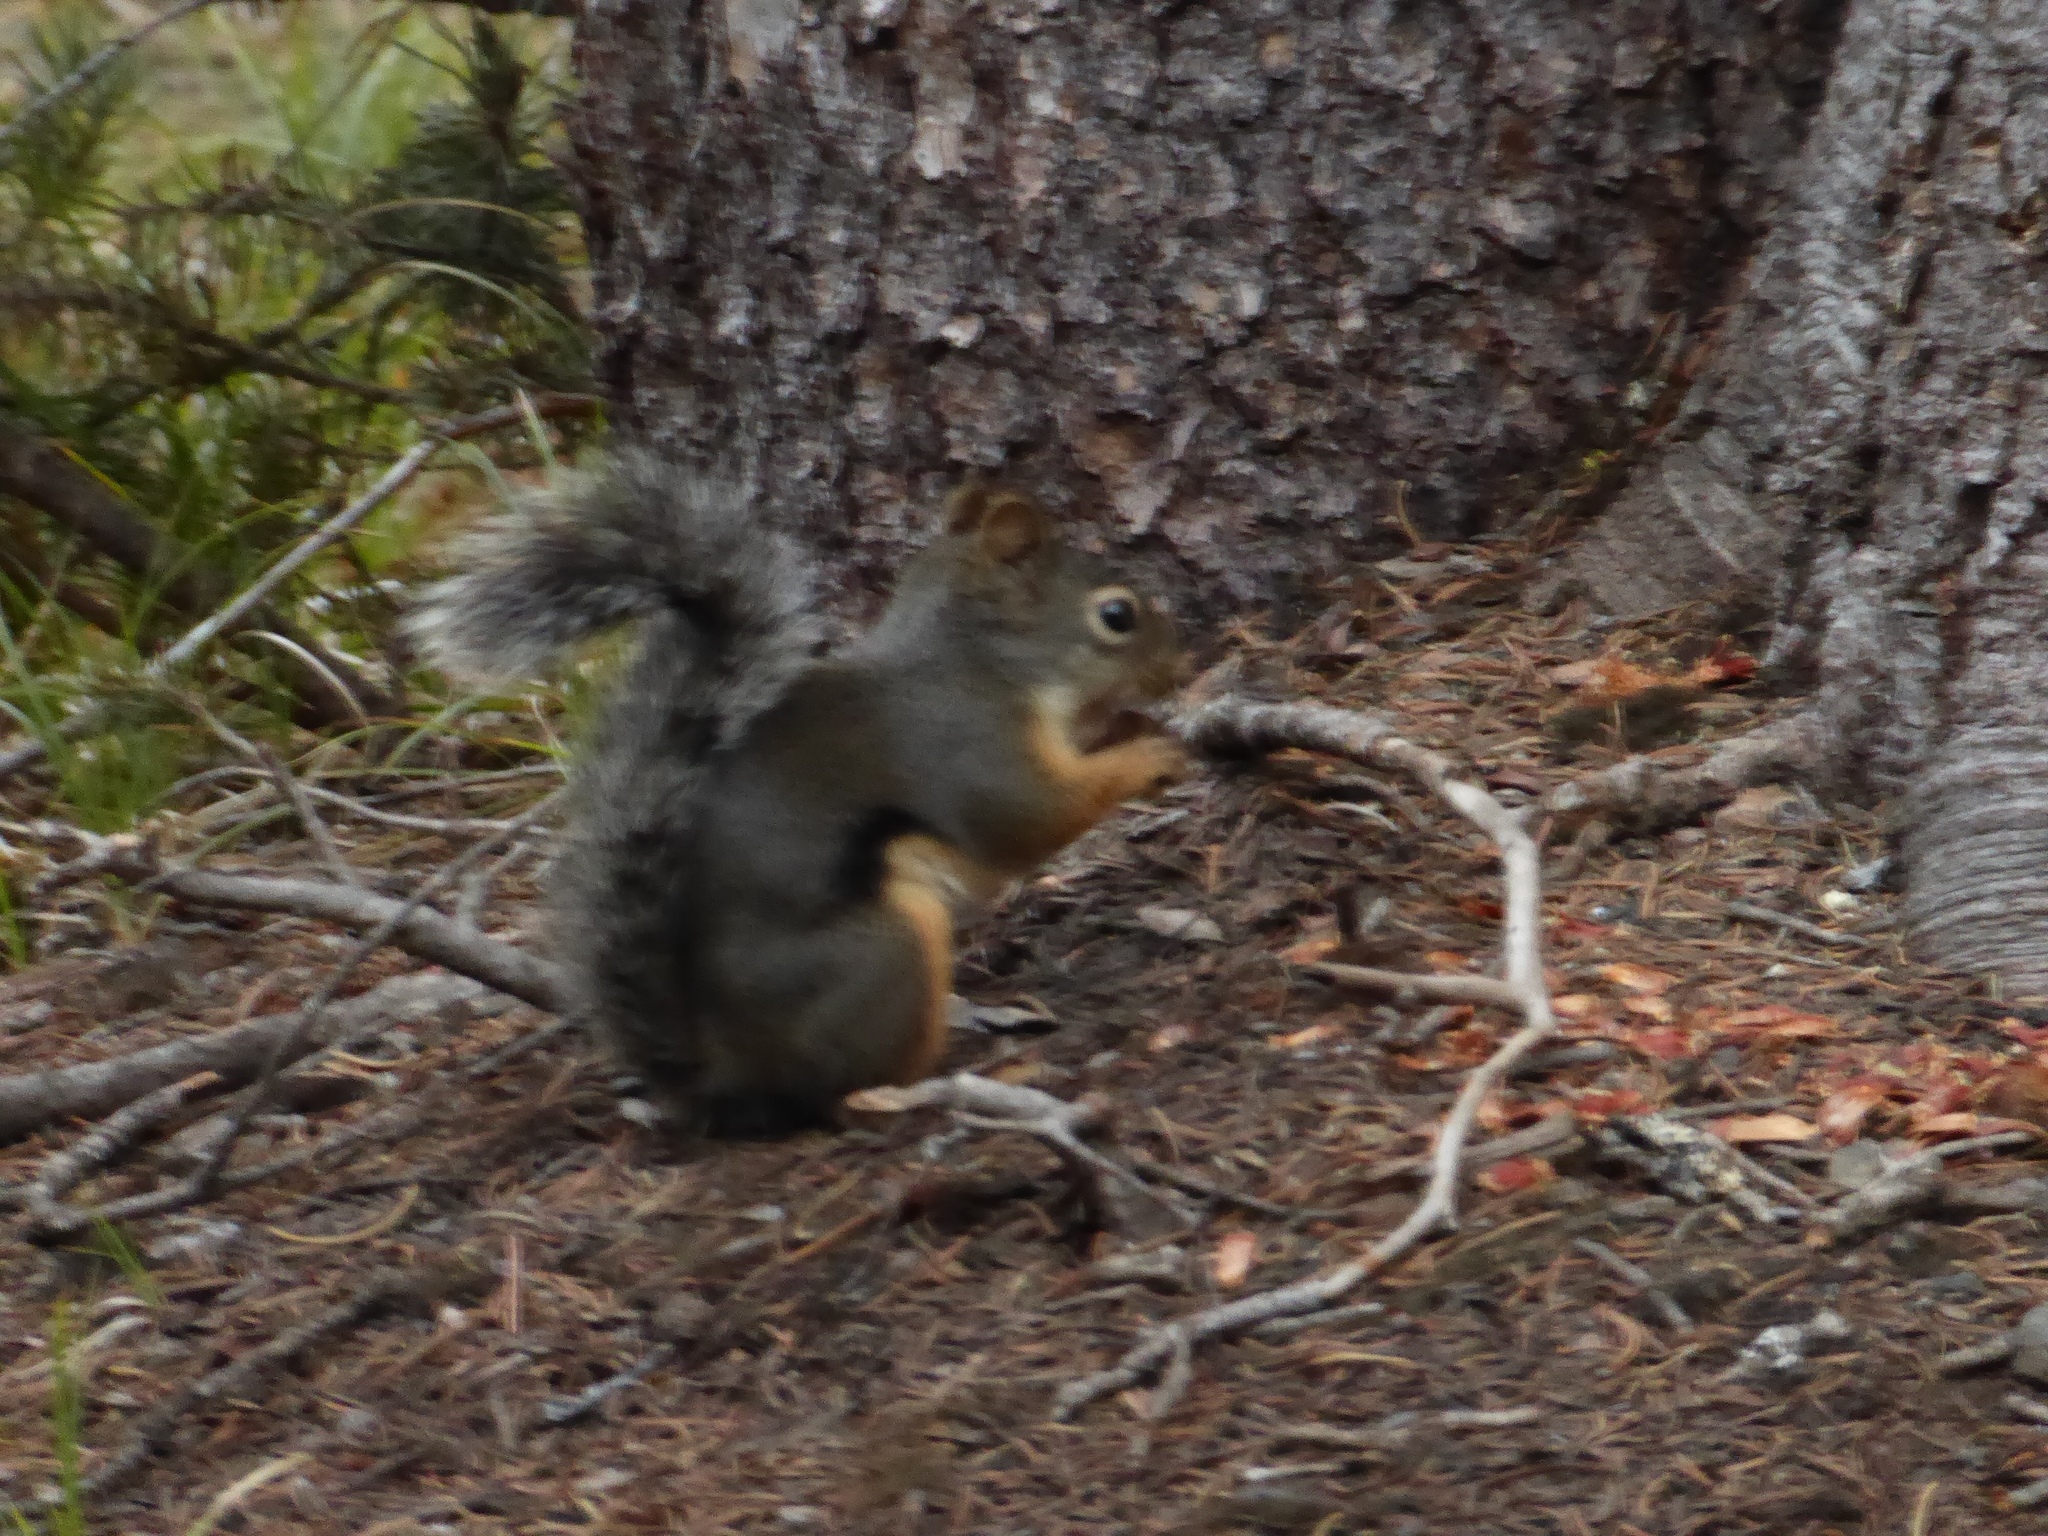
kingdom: Animalia
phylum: Chordata
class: Mammalia
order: Rodentia
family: Sciuridae
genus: Tamiasciurus
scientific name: Tamiasciurus douglasii
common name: Douglas's squirrel
